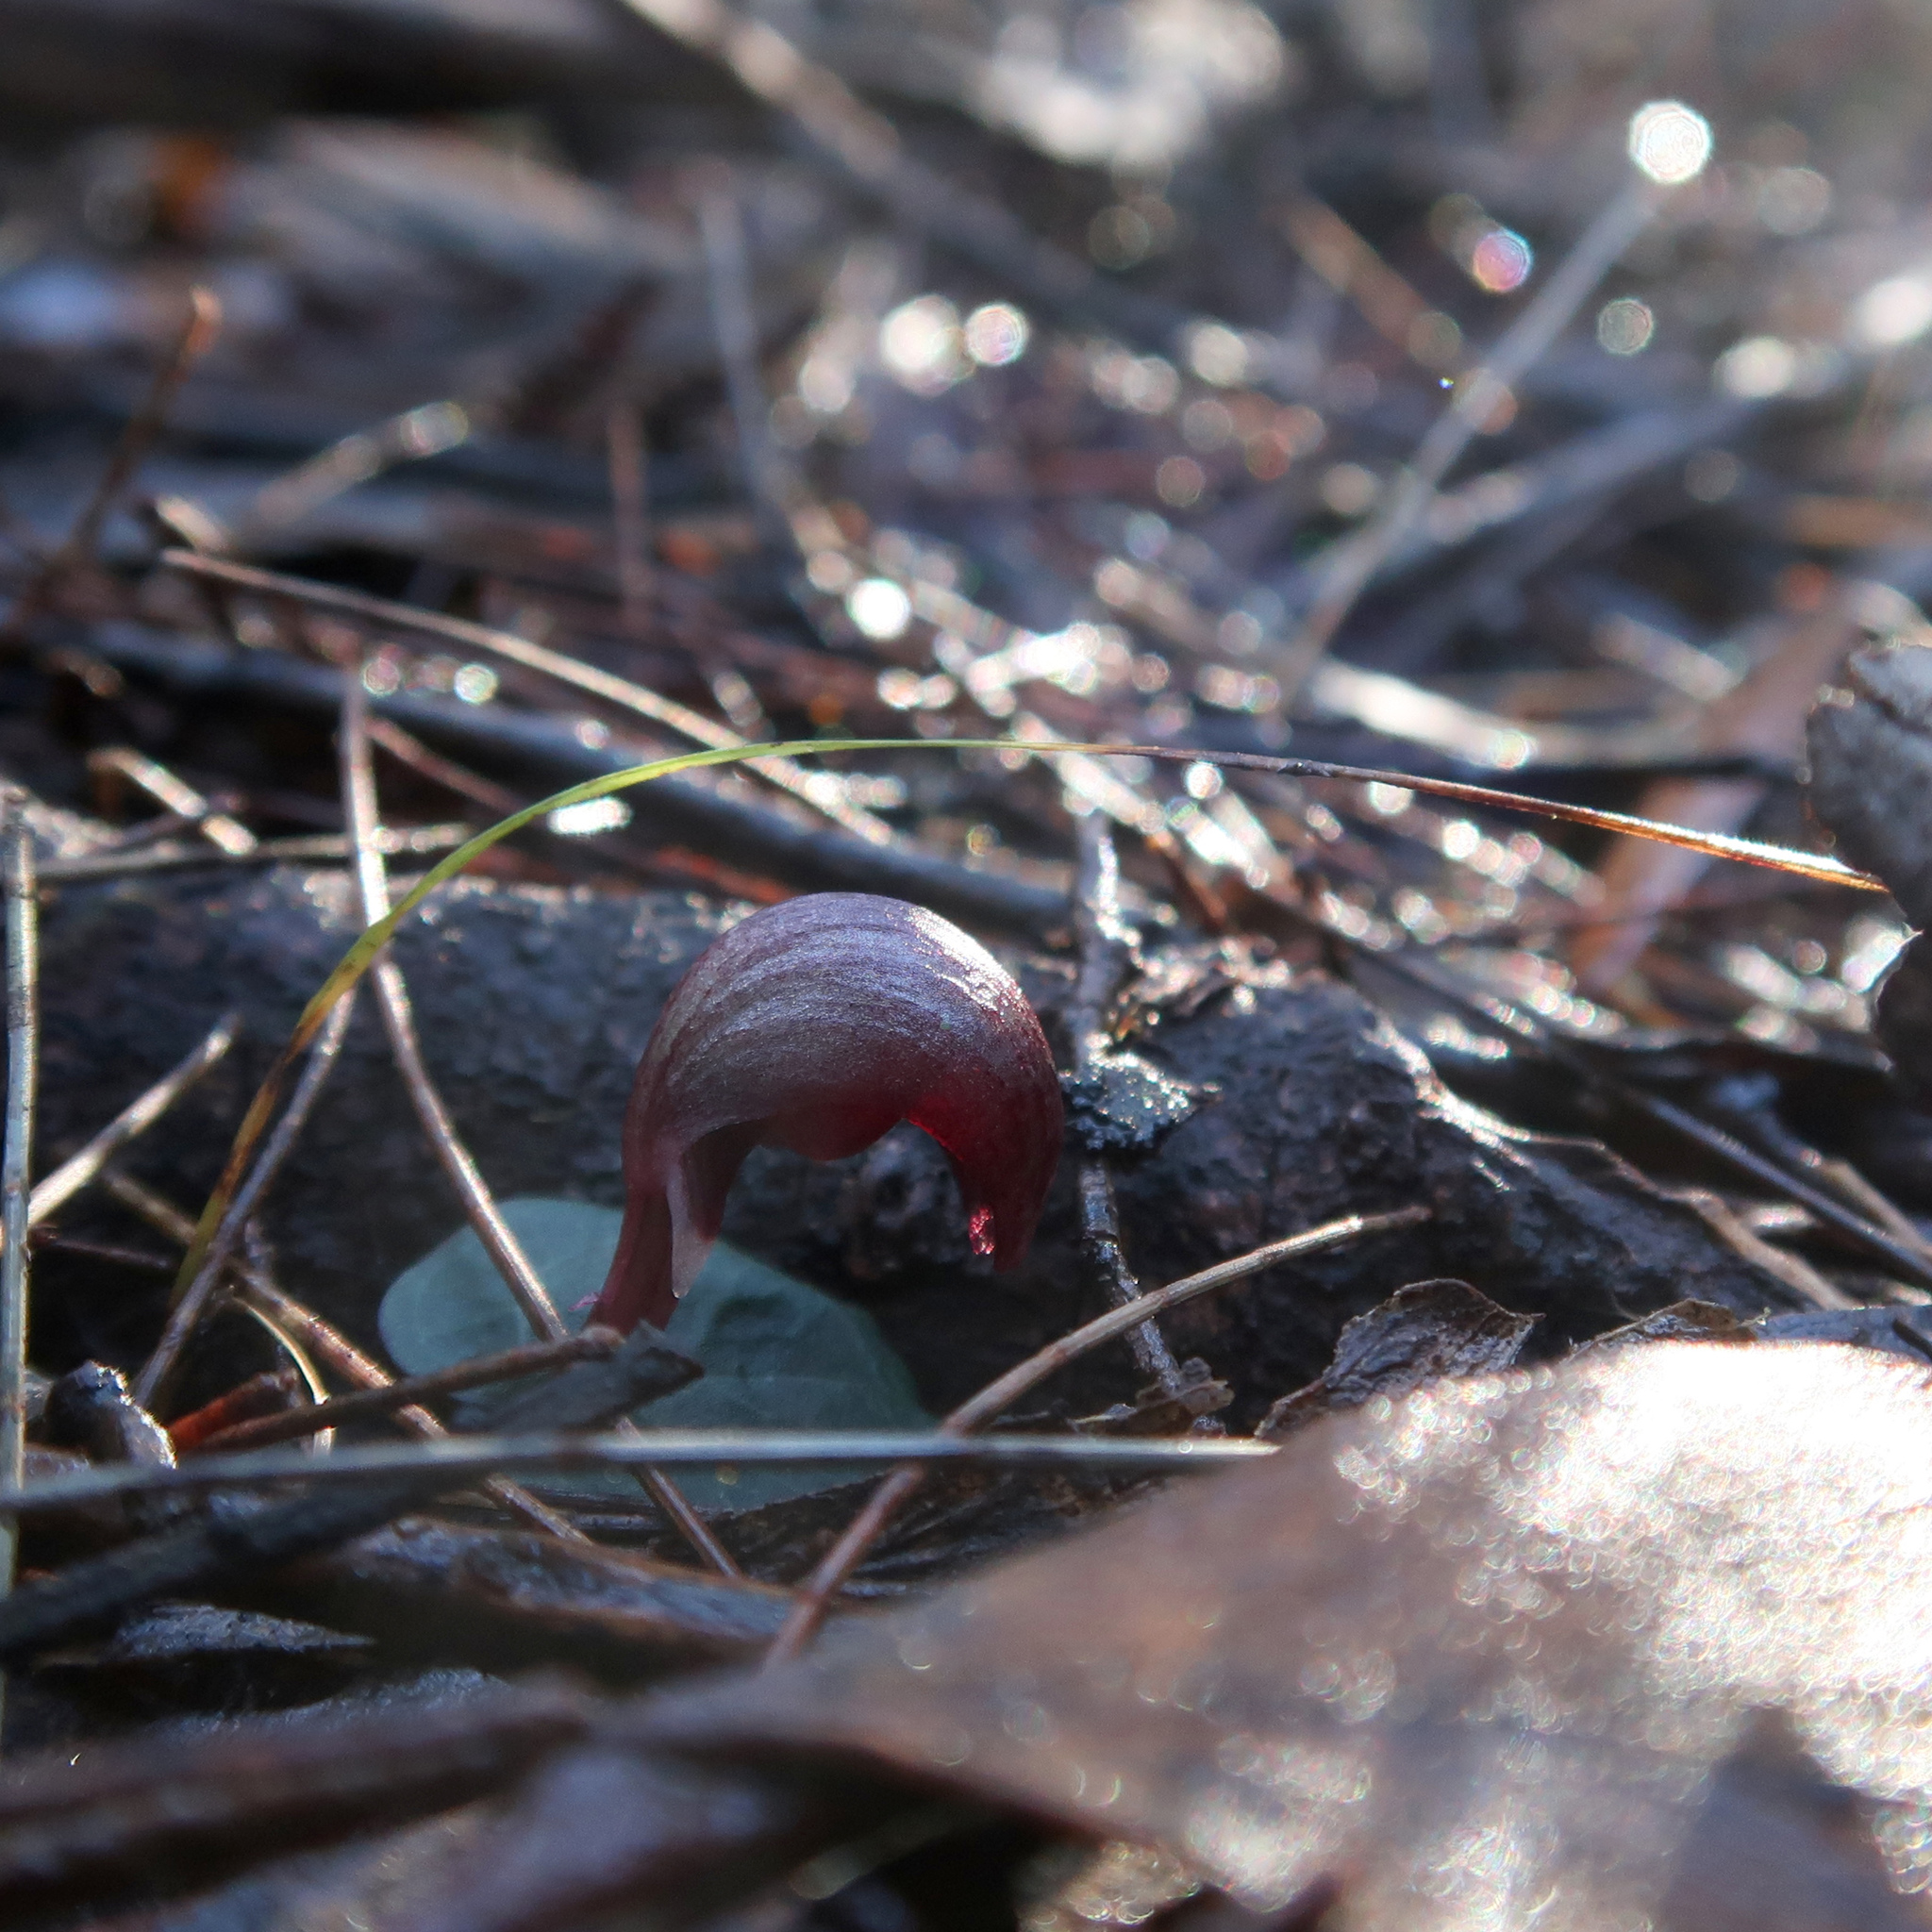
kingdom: Plantae
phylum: Tracheophyta
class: Liliopsida
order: Asparagales
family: Orchidaceae
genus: Corybas
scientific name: Corybas aconitiflorus
